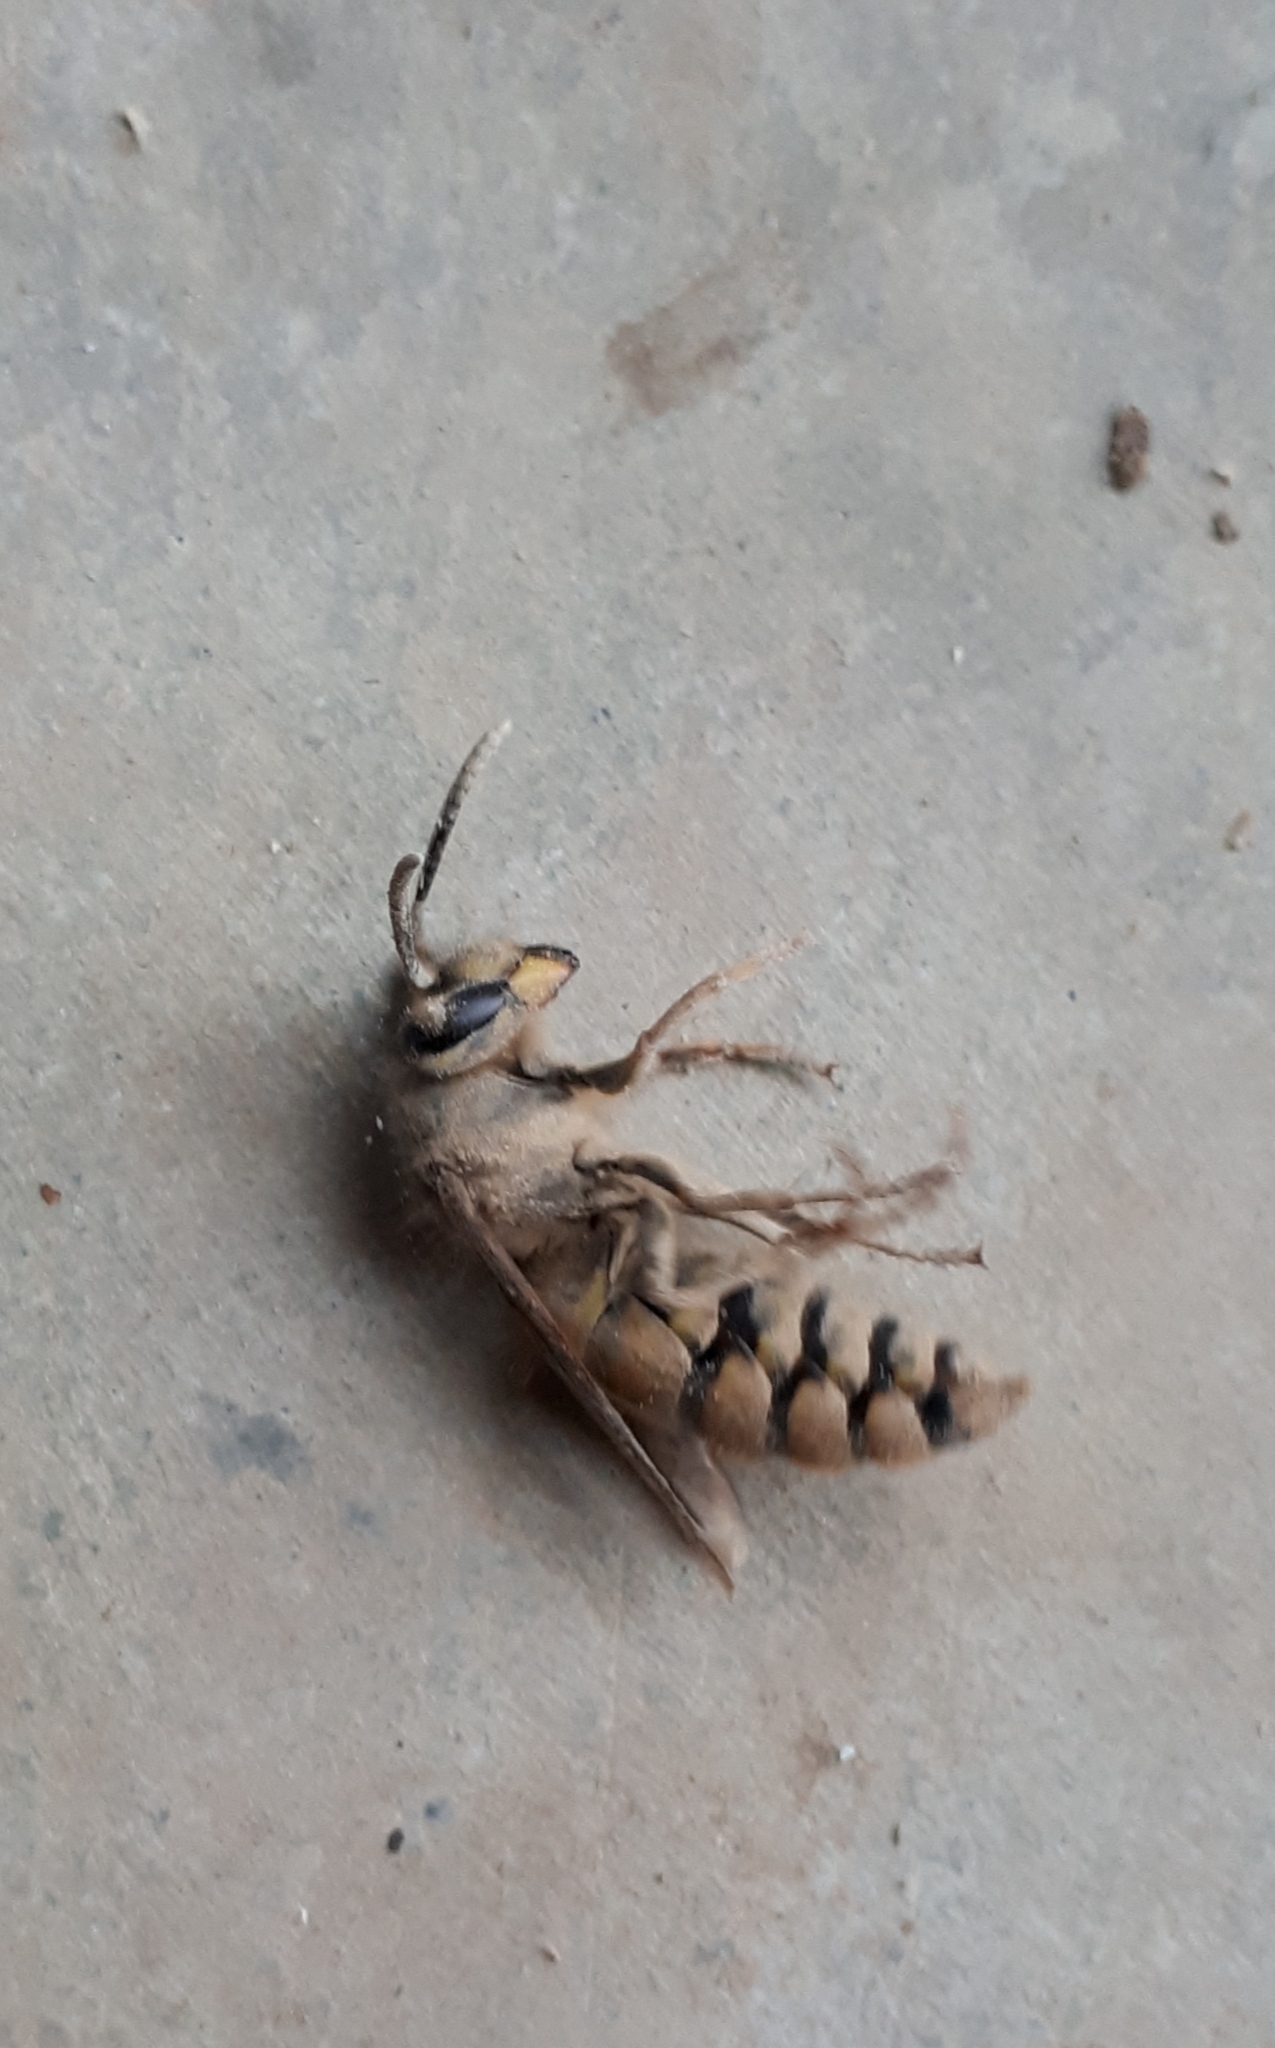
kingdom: Animalia
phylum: Arthropoda
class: Insecta
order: Hymenoptera
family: Vespidae
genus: Vespula
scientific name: Vespula vulgaris
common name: Common wasp
